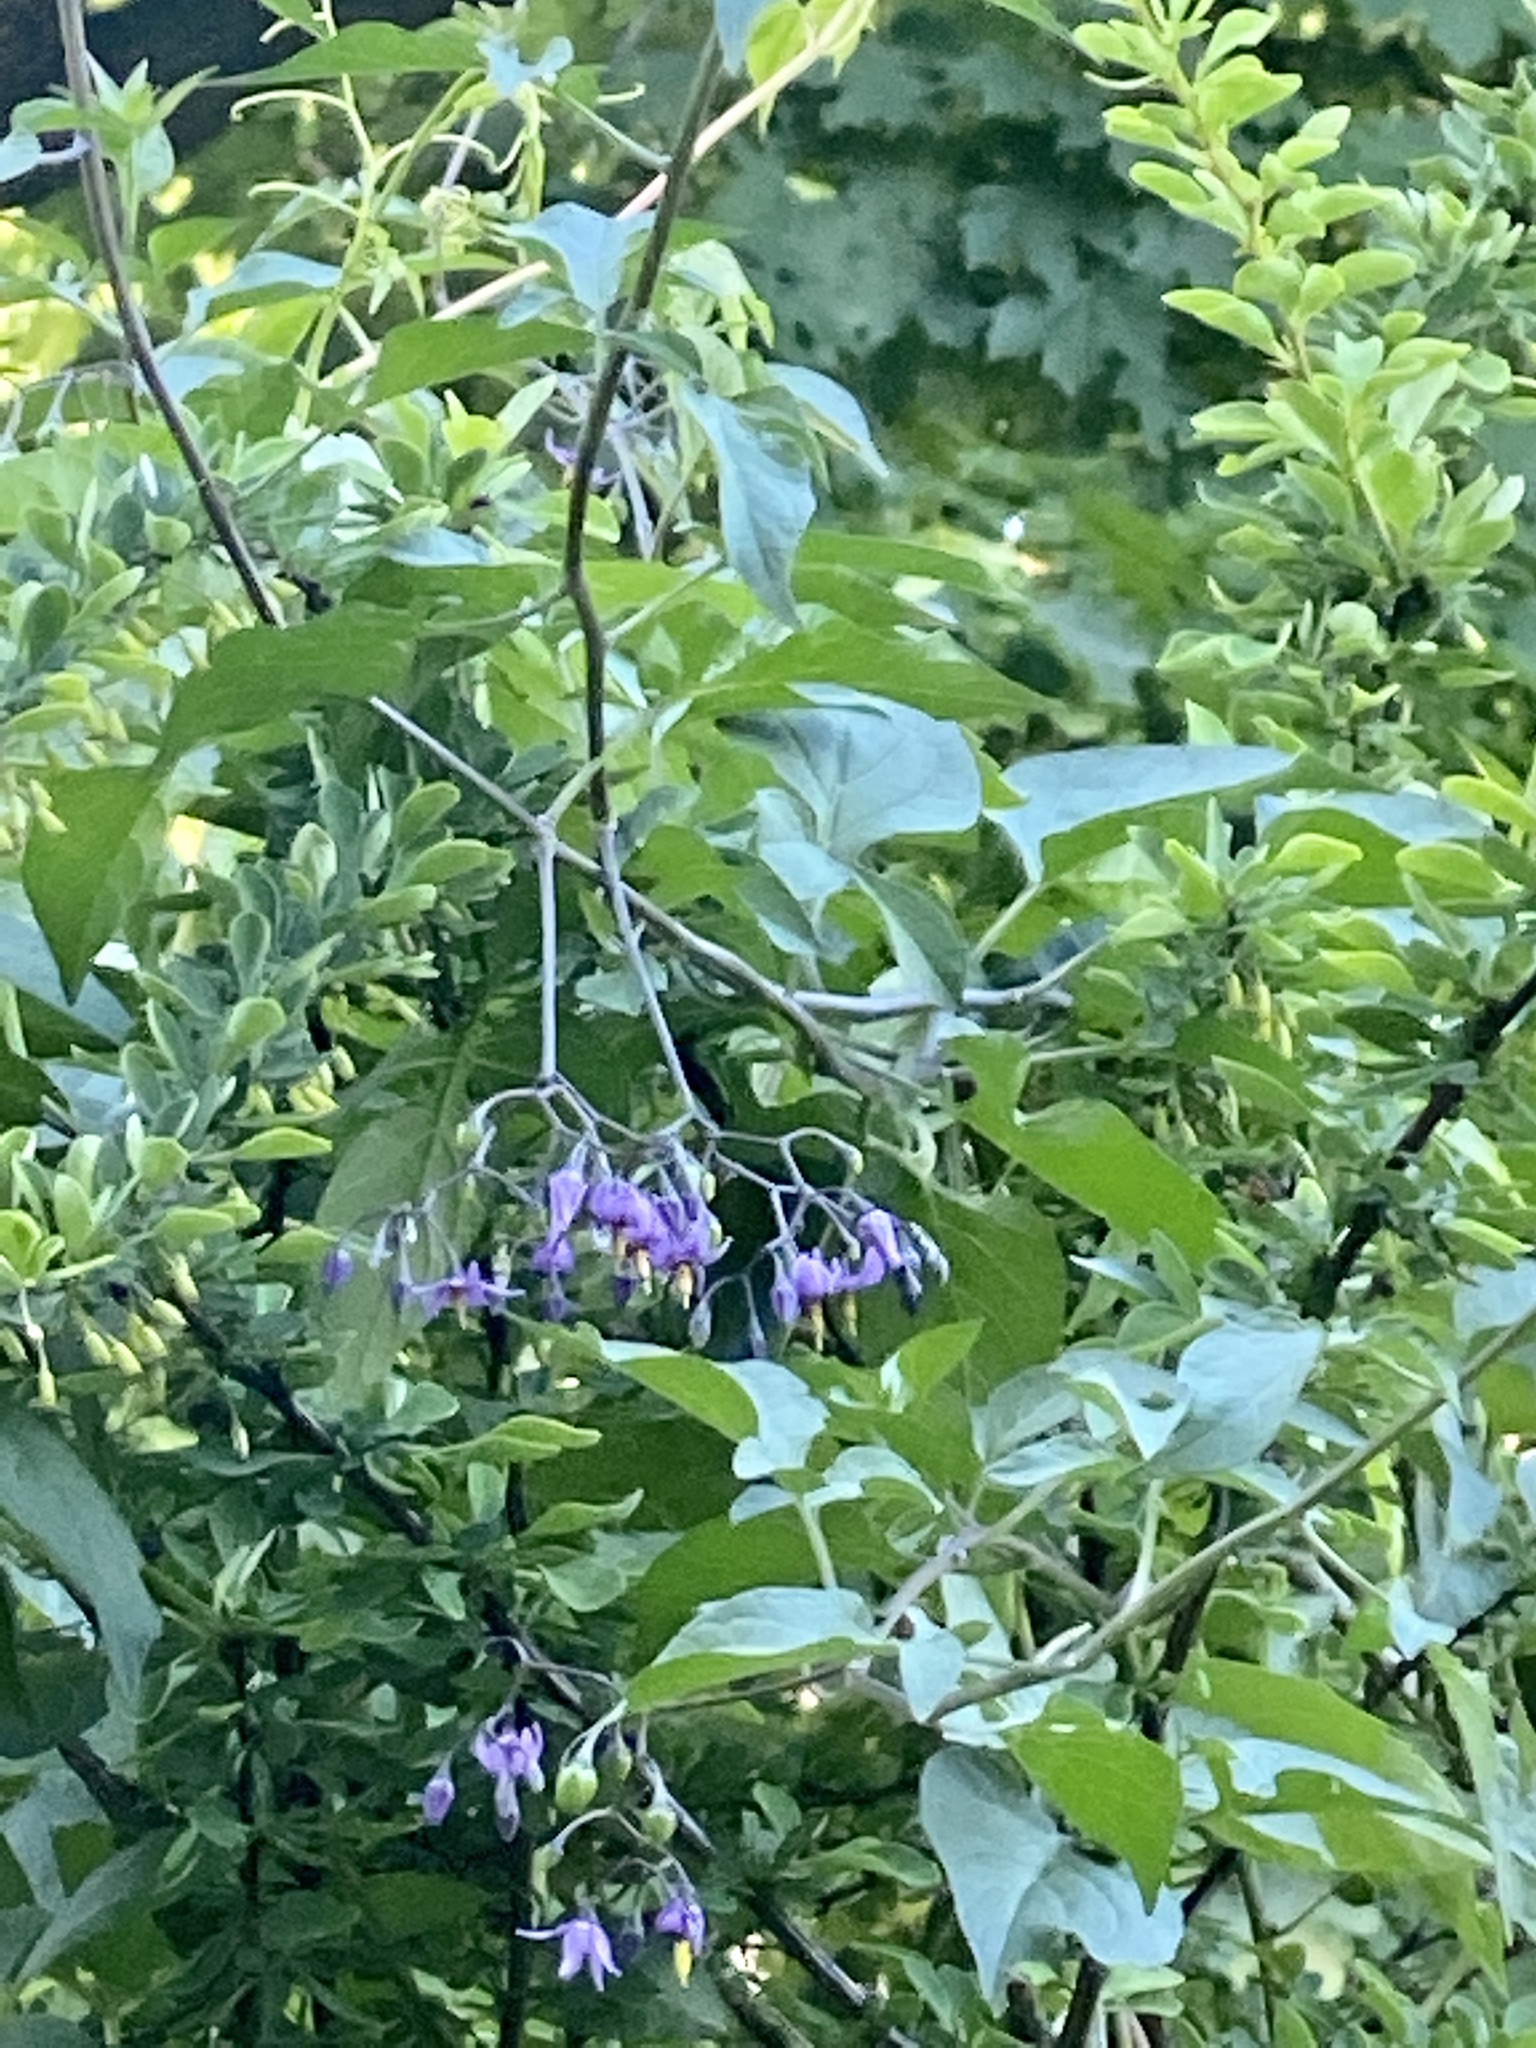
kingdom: Plantae
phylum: Tracheophyta
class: Magnoliopsida
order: Solanales
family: Solanaceae
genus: Solanum
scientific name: Solanum dulcamara
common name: Climbing nightshade
